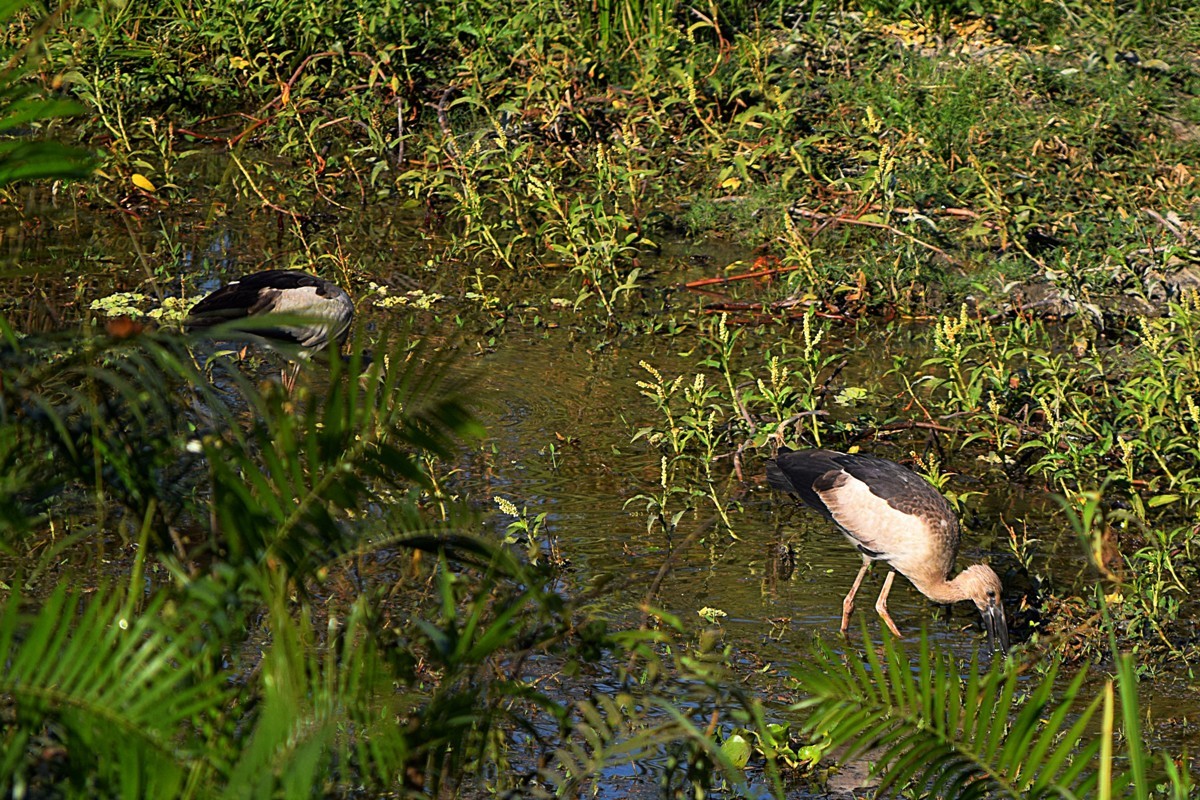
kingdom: Animalia
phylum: Chordata
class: Aves
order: Ciconiiformes
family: Ciconiidae
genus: Anastomus
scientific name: Anastomus oscitans
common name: Asian openbill
